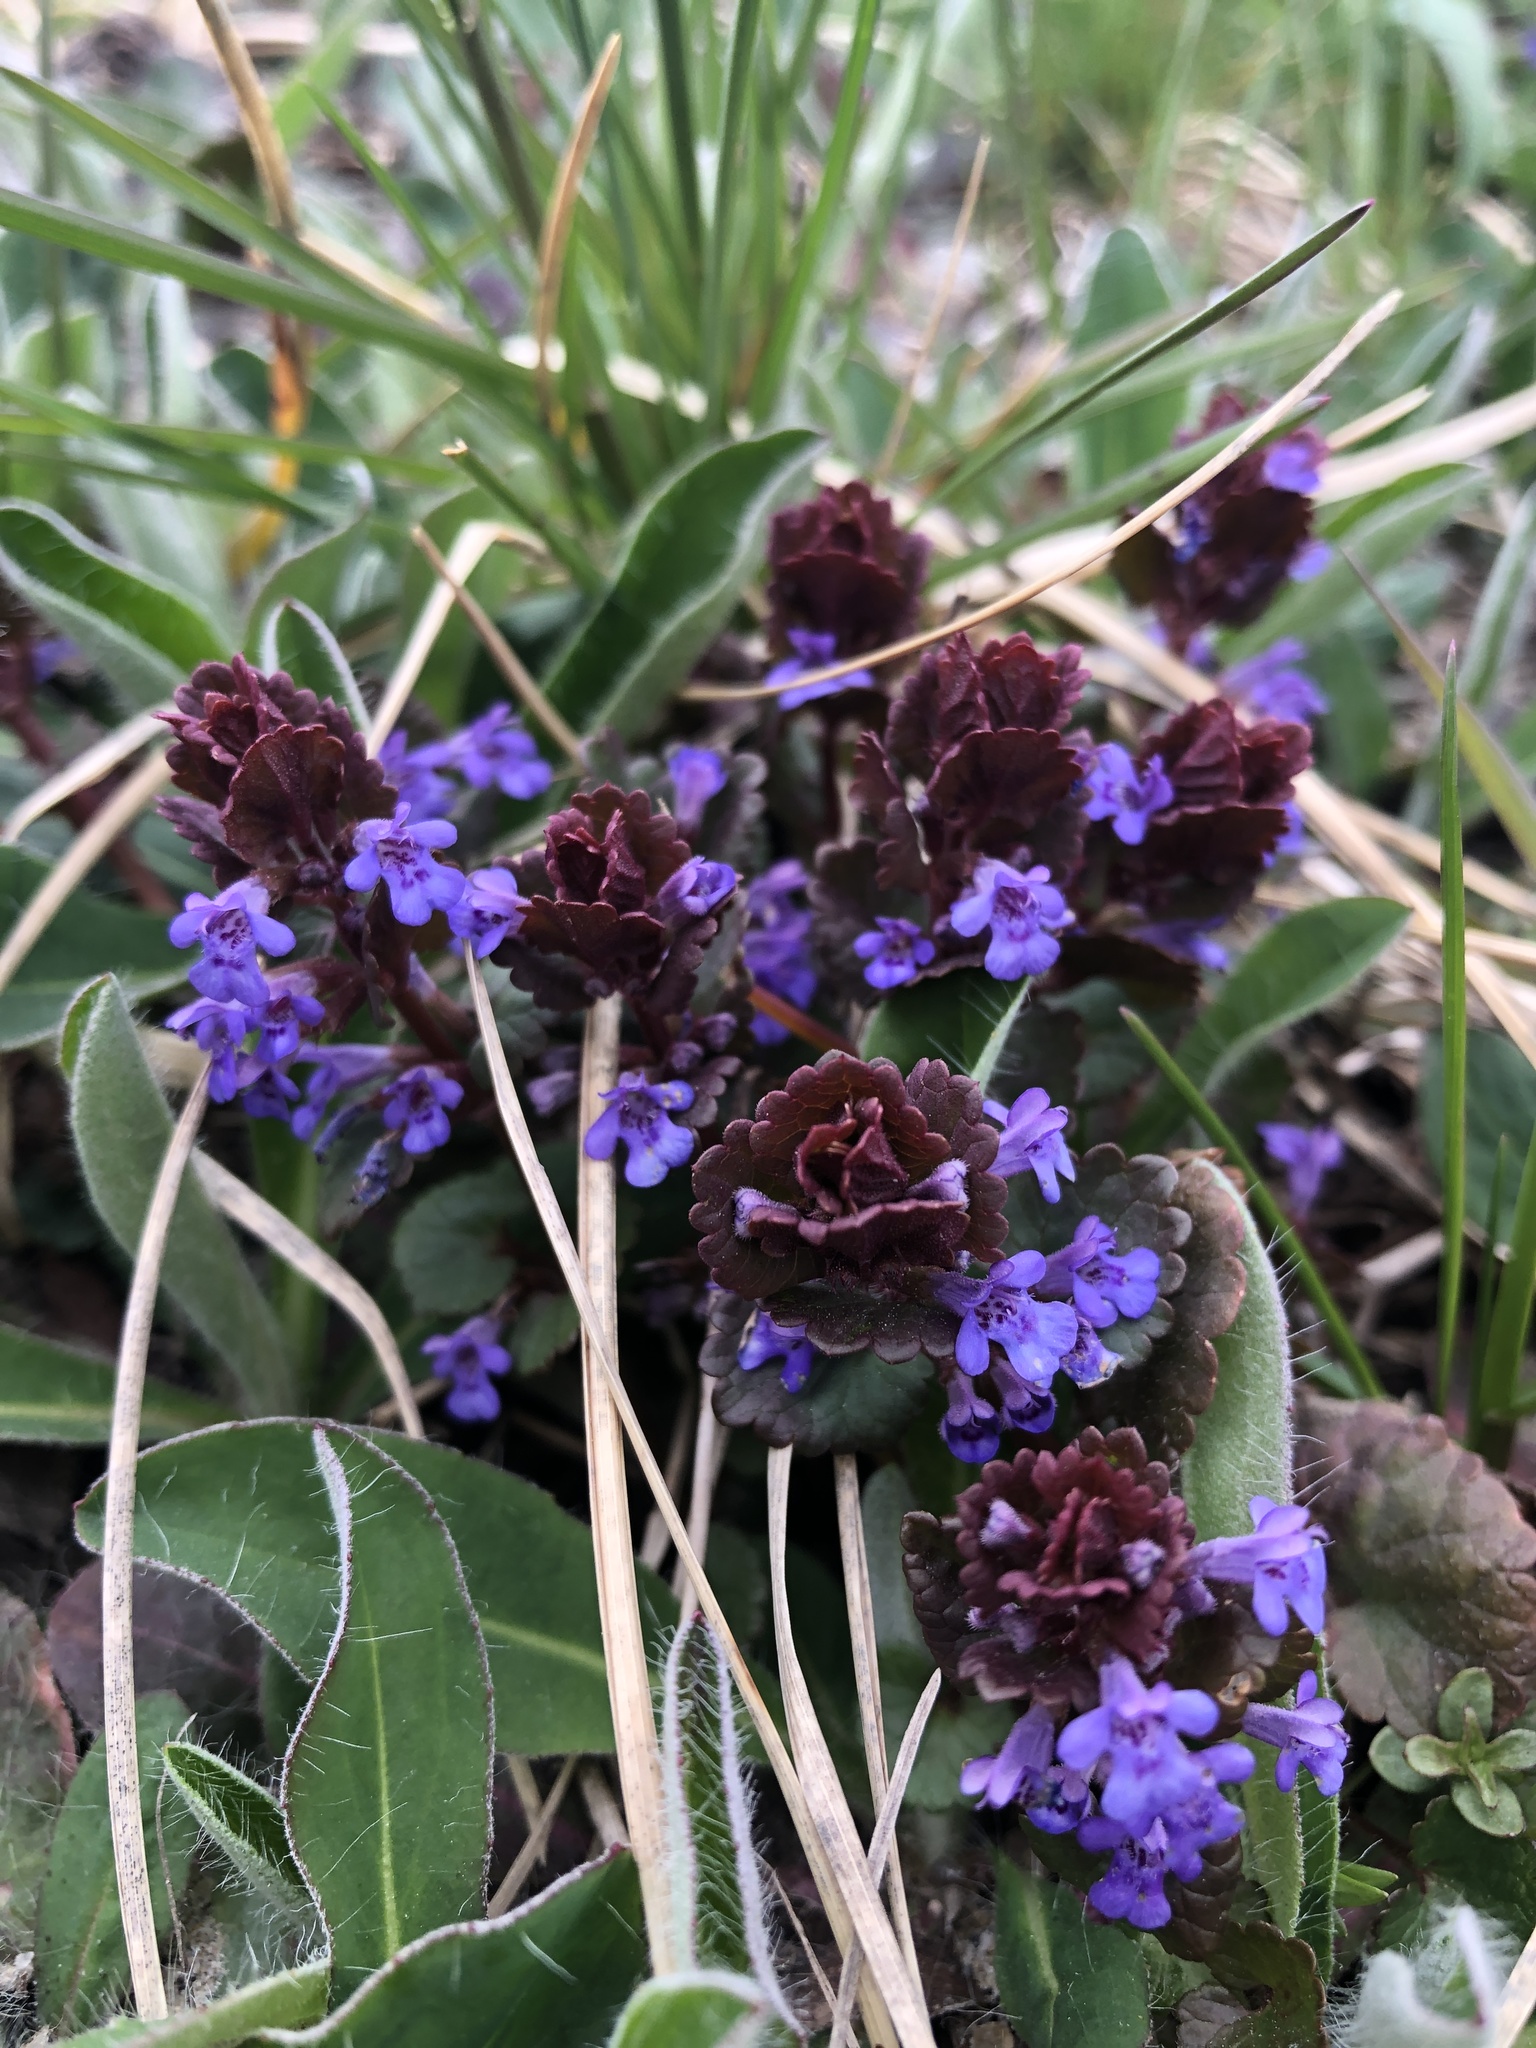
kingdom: Plantae
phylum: Tracheophyta
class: Magnoliopsida
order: Lamiales
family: Lamiaceae
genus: Glechoma
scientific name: Glechoma hederacea
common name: Ground ivy
